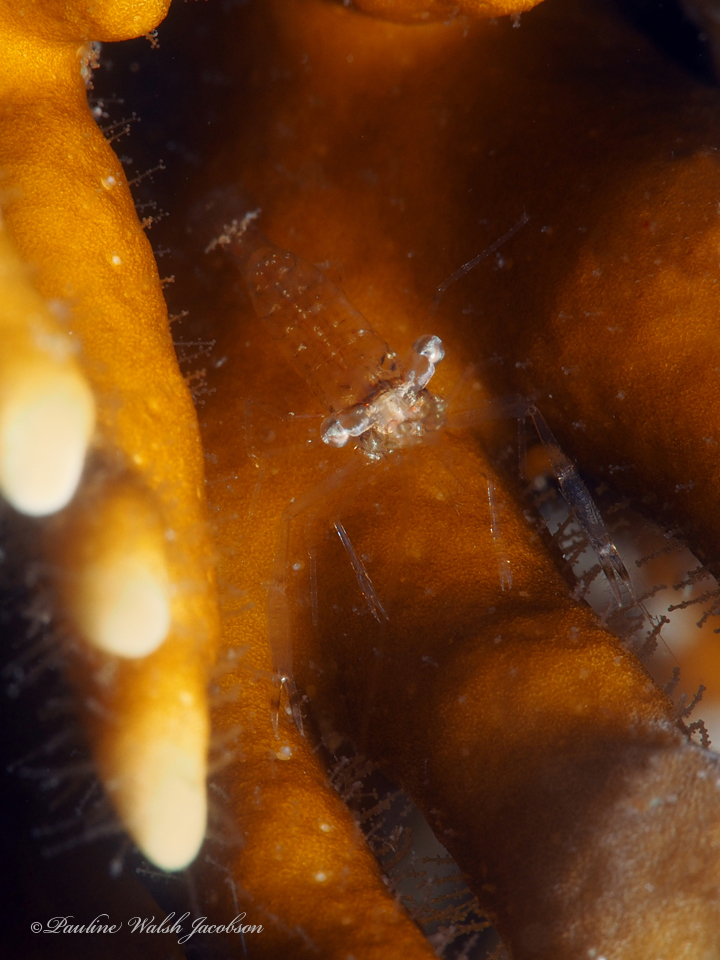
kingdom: Animalia
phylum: Arthropoda
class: Malacostraca
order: Decapoda
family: Palaemonidae
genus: Palaemonella
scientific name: Palaemonella
